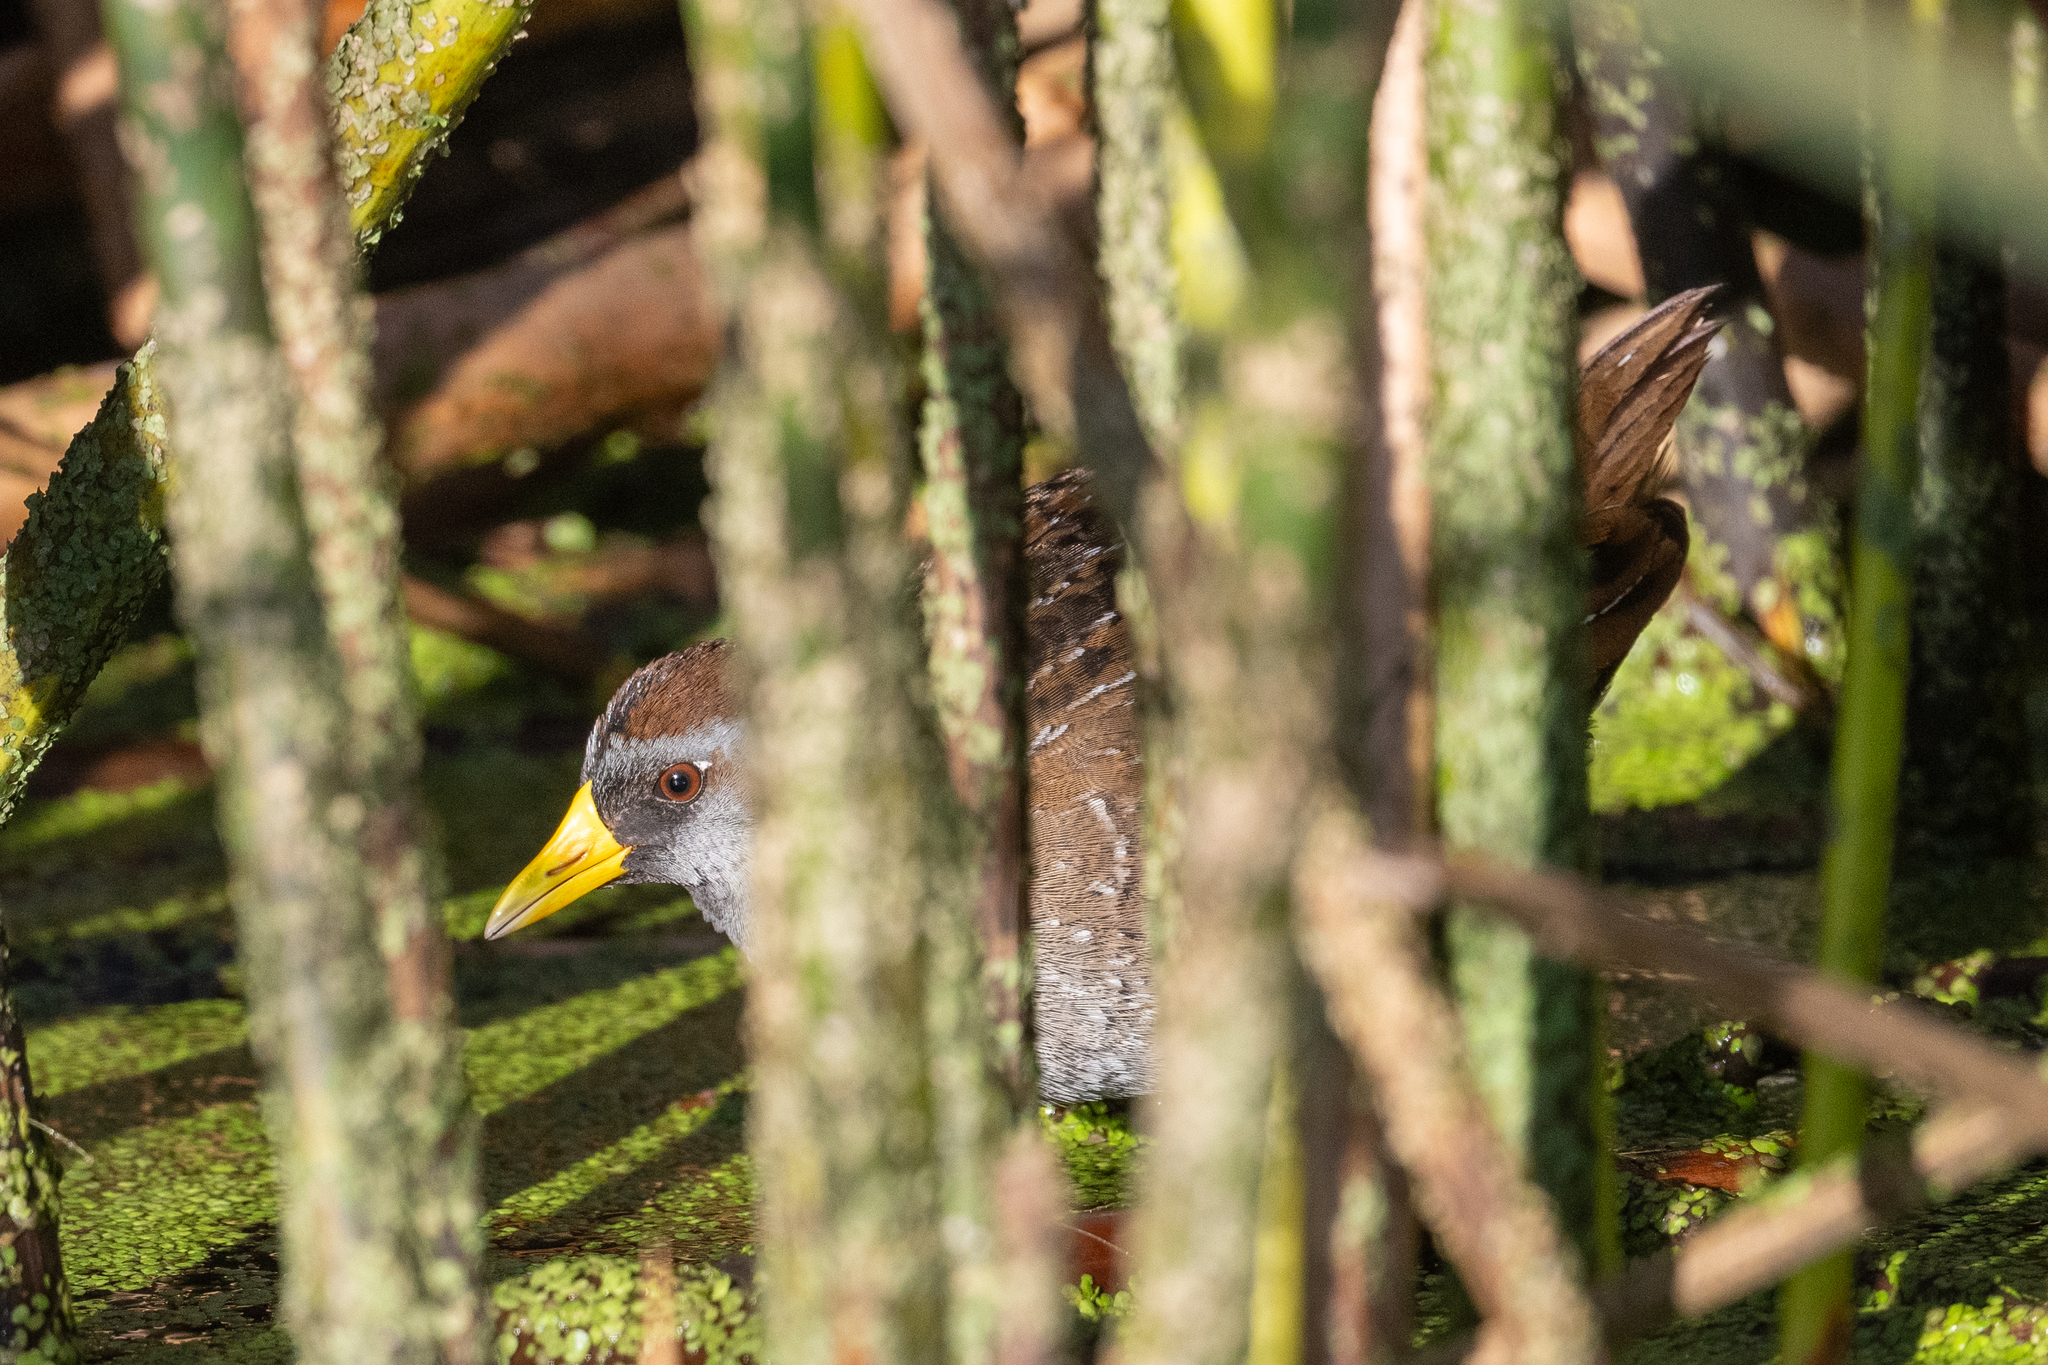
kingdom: Animalia
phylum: Chordata
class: Aves
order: Gruiformes
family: Rallidae
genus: Porzana
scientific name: Porzana carolina
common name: Sora
